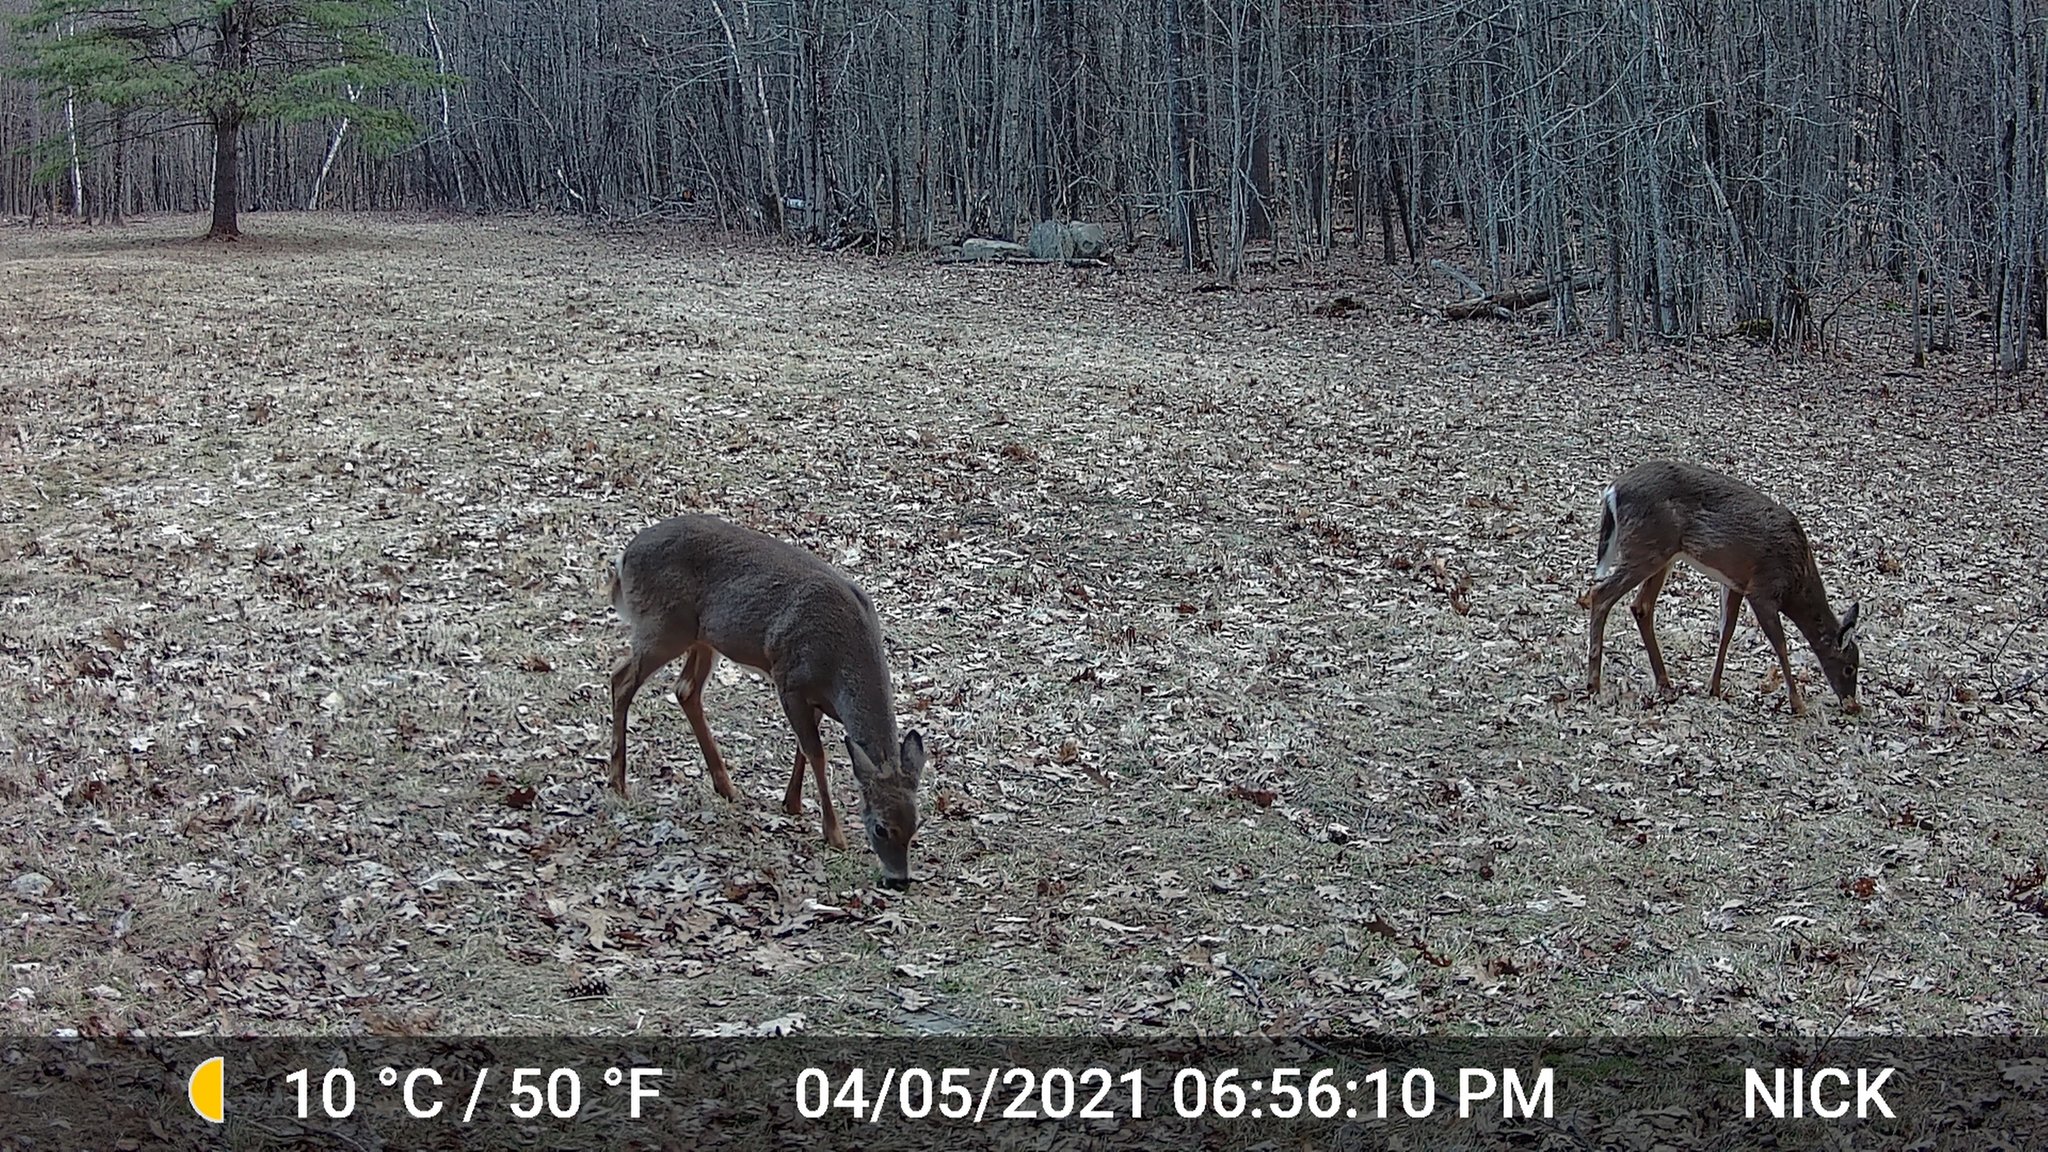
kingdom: Animalia
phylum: Chordata
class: Mammalia
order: Artiodactyla
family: Cervidae
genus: Odocoileus
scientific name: Odocoileus virginianus
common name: White-tailed deer
